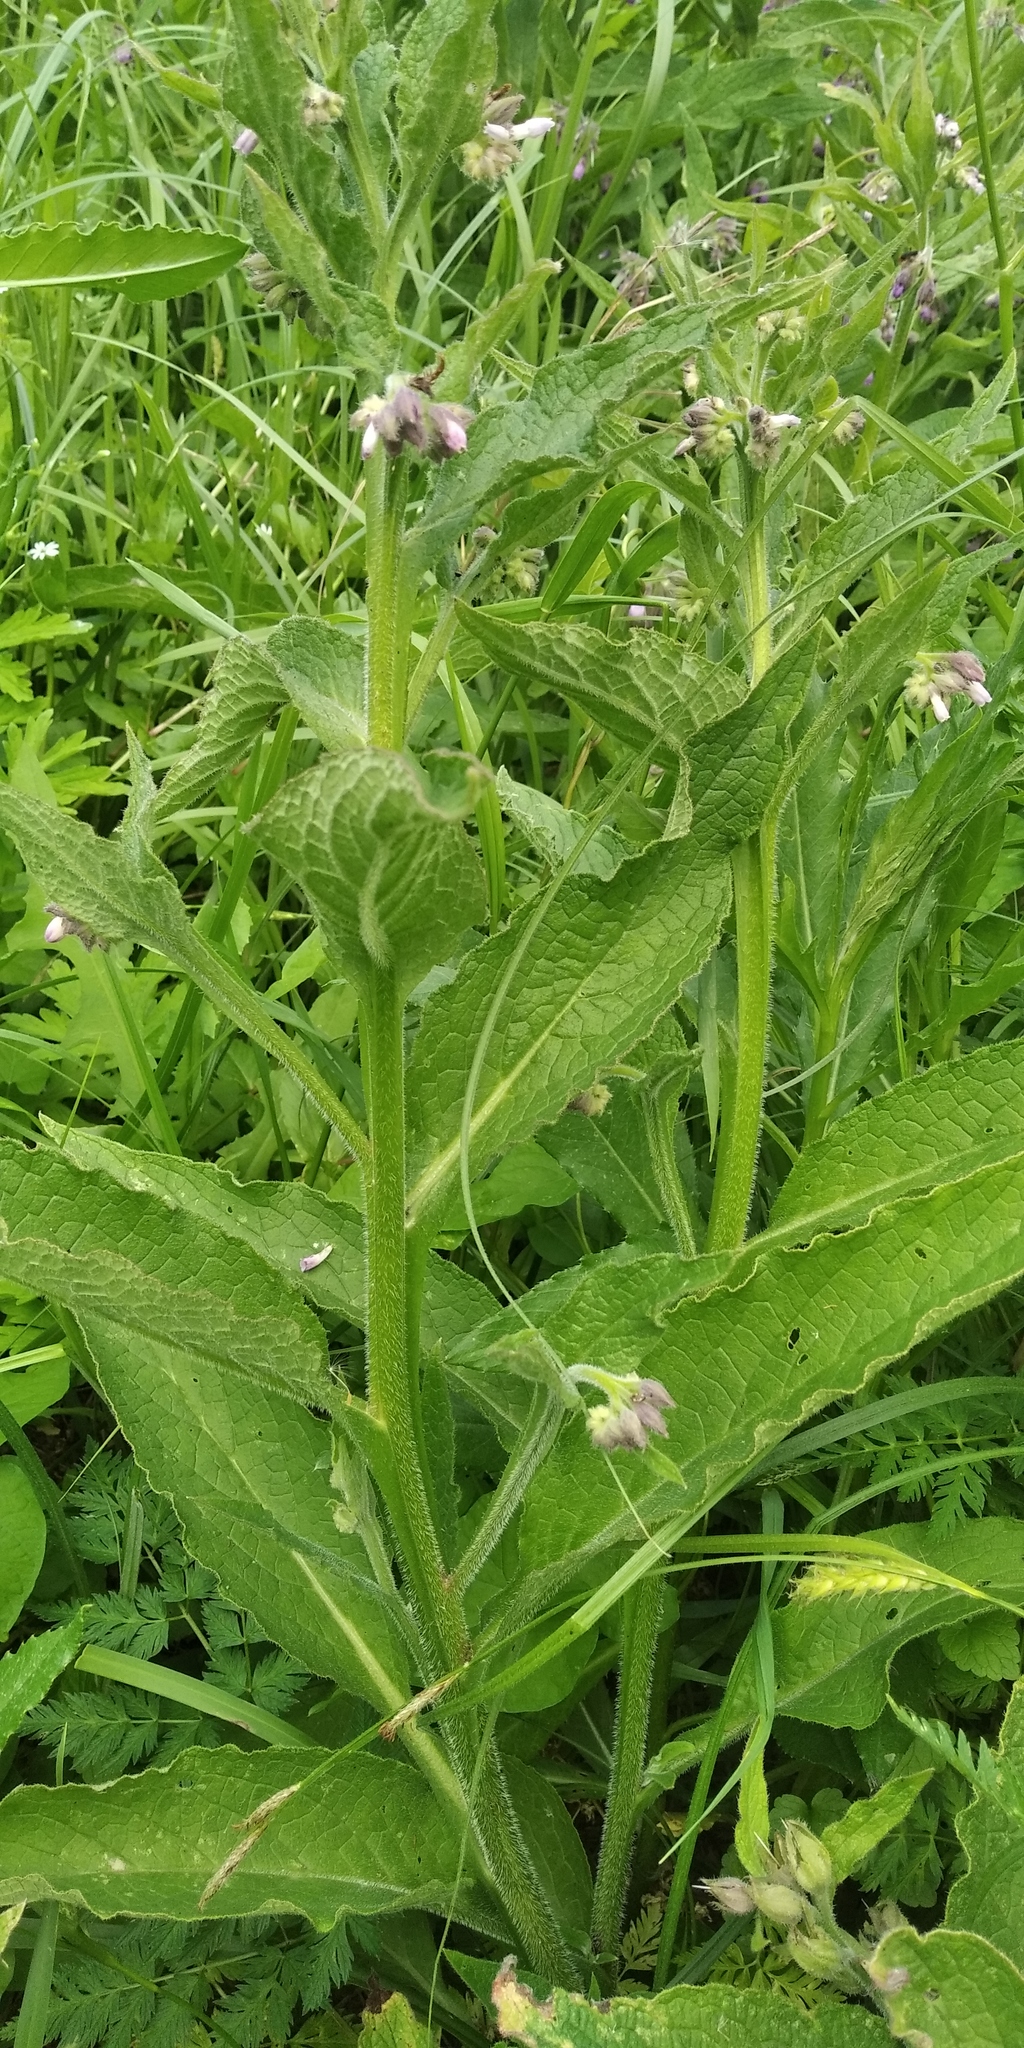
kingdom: Plantae
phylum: Tracheophyta
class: Magnoliopsida
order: Boraginales
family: Boraginaceae
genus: Symphytum
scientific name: Symphytum officinale
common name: Common comfrey
